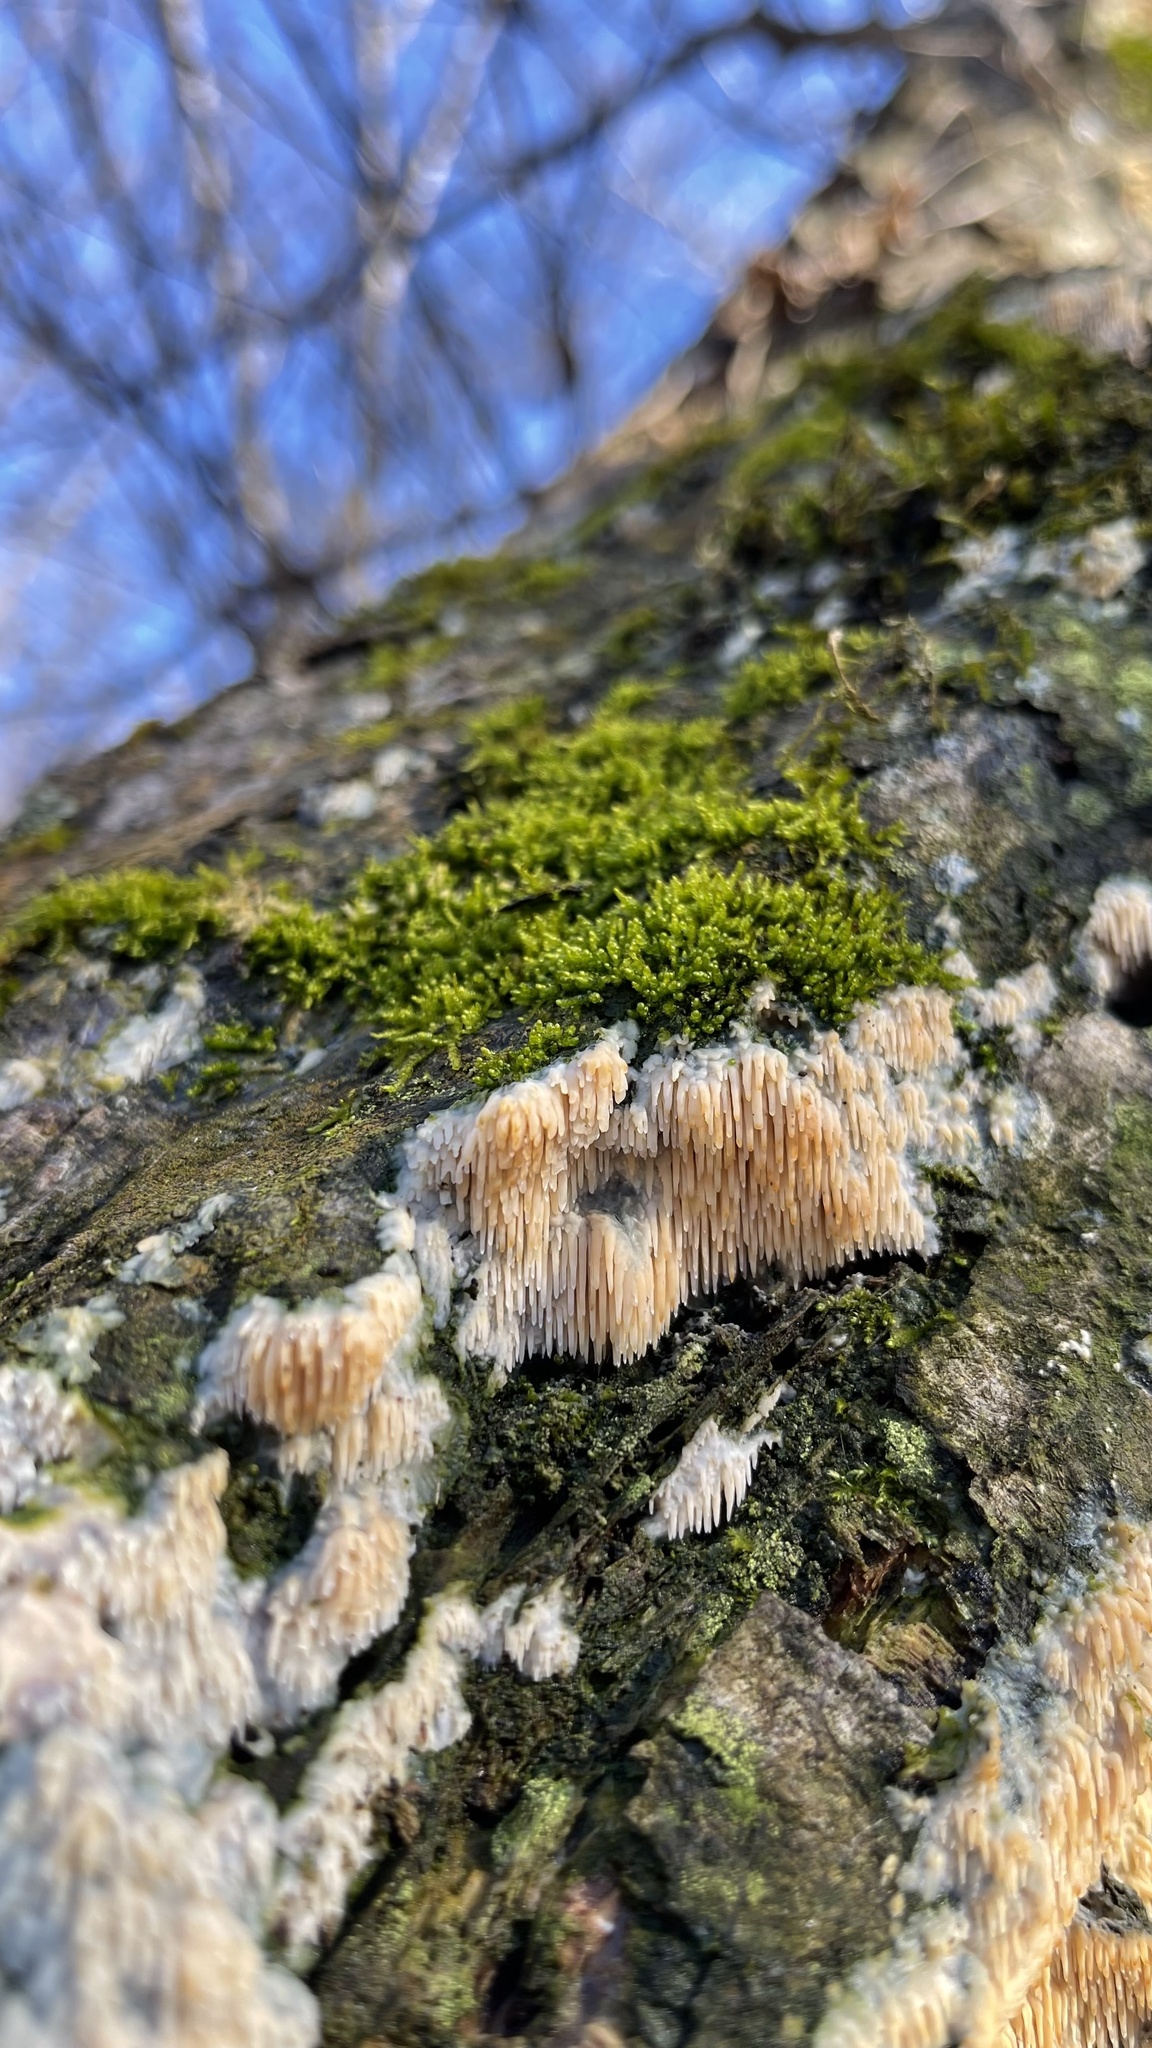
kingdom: Fungi
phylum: Basidiomycota
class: Agaricomycetes
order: Agaricales
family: Radulomycetaceae
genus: Radulomyces
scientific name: Radulomyces copelandii
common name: Asian beauty
